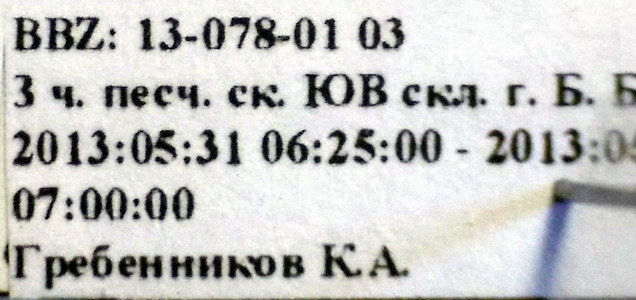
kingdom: Animalia
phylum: Arthropoda
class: Insecta
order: Hemiptera
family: Pentatomidae
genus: Tholagmus
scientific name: Tholagmus flavolineatus
